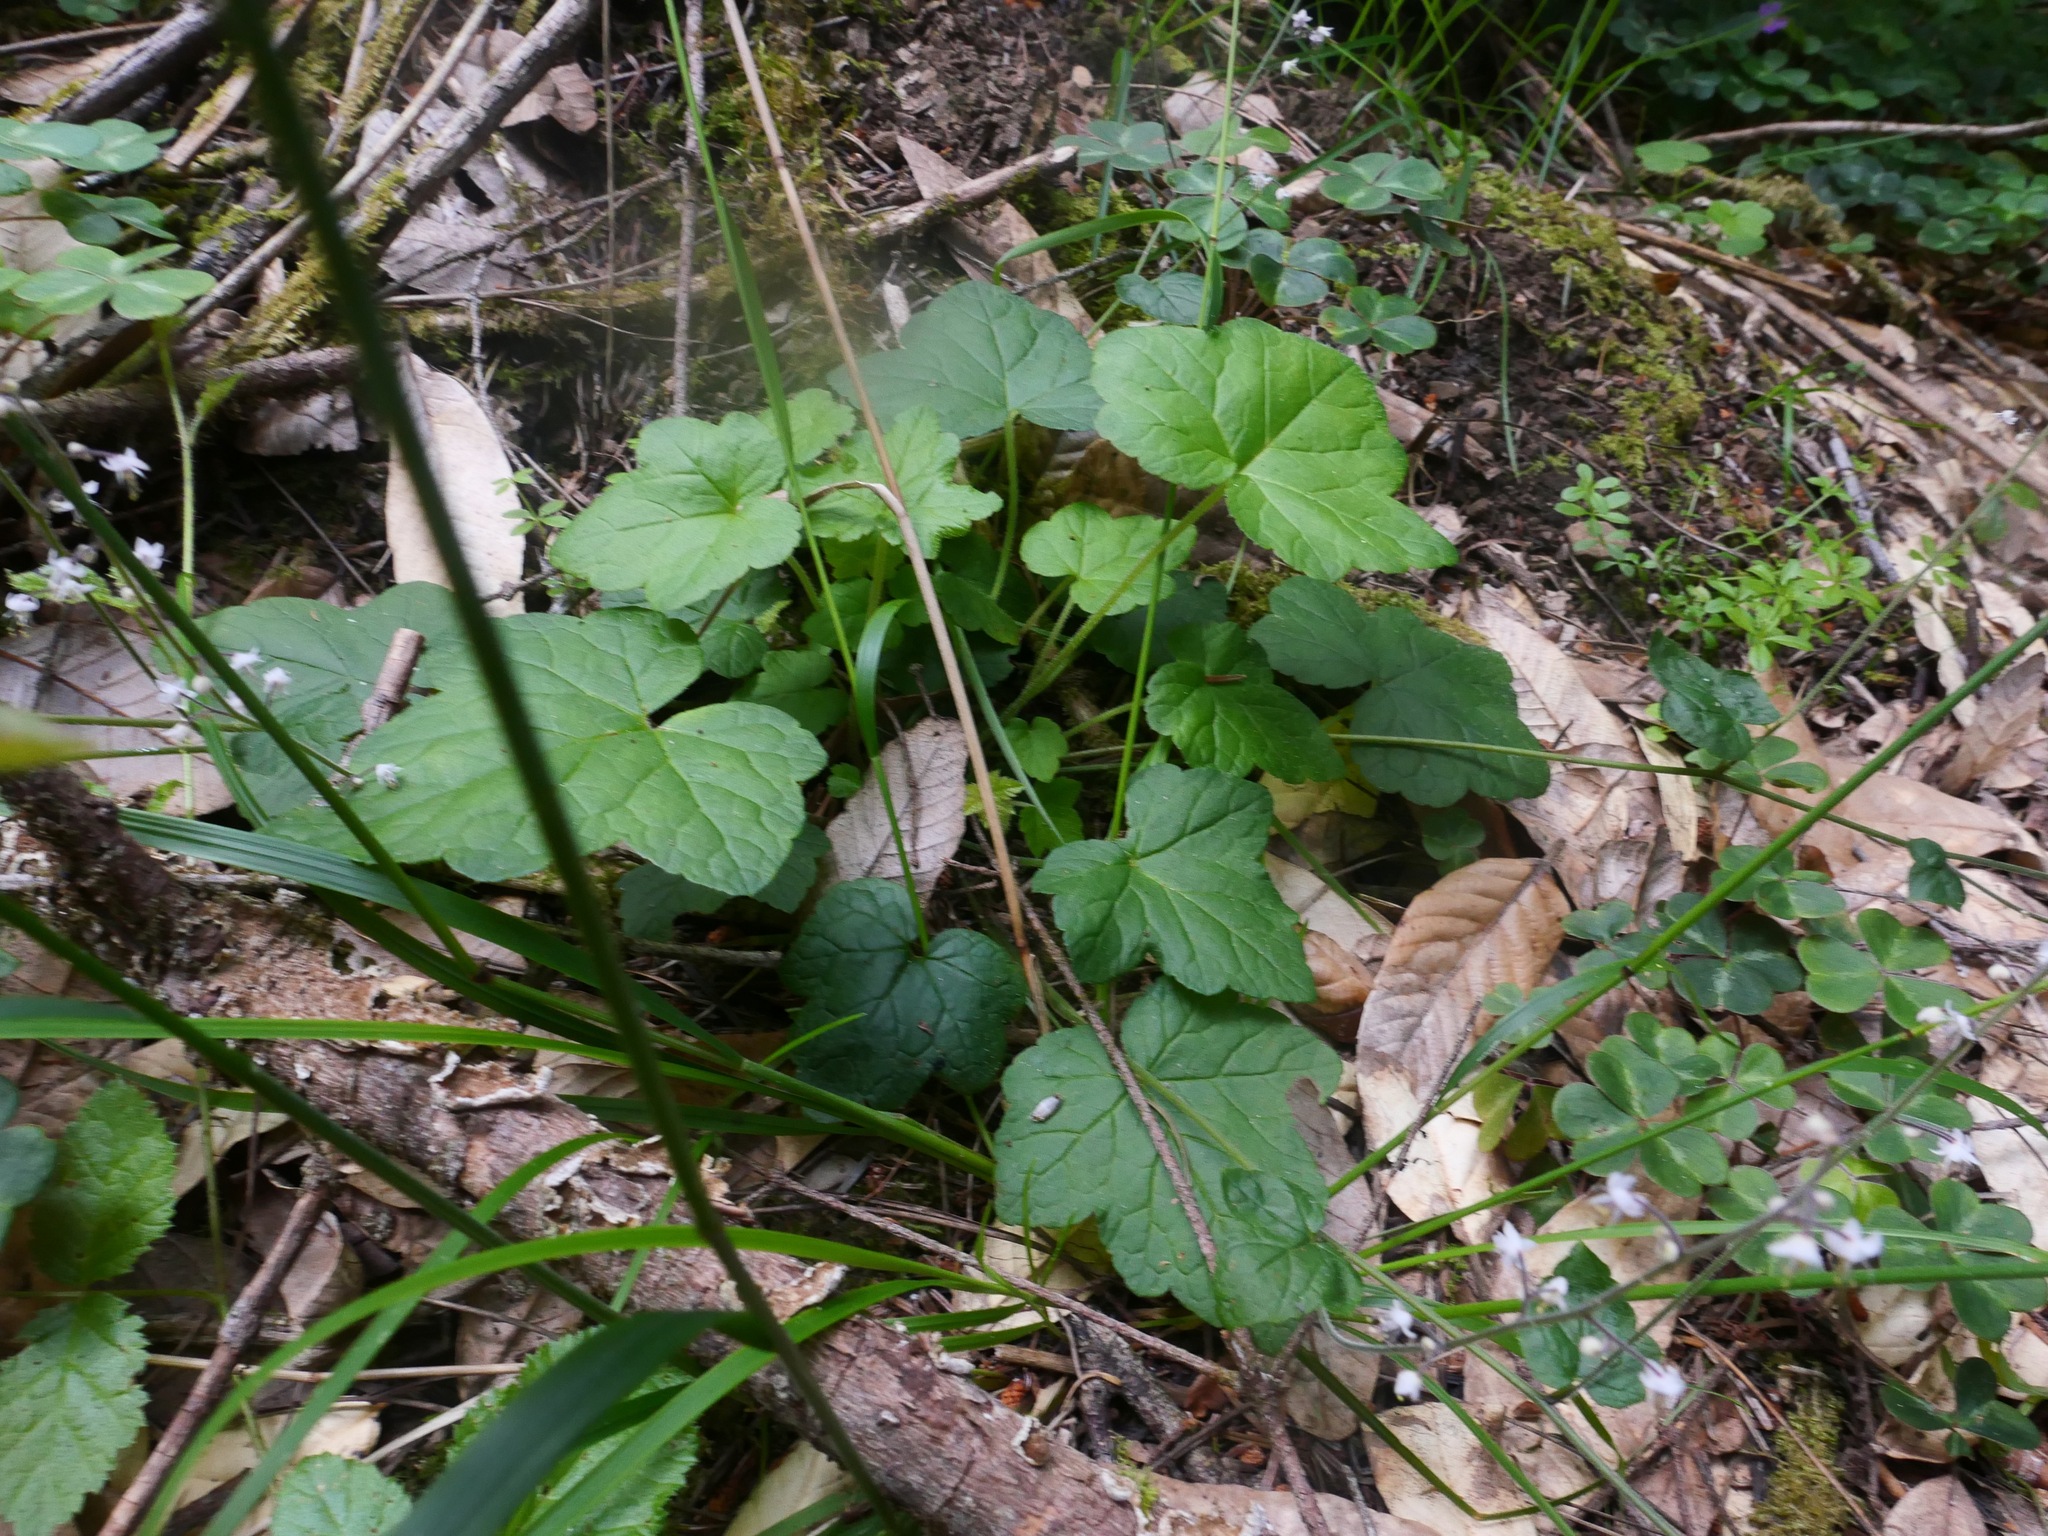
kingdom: Plantae
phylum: Tracheophyta
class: Magnoliopsida
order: Saxifragales
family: Saxifragaceae
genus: Tiarella
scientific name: Tiarella trifoliata
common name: Sugar-scoop
